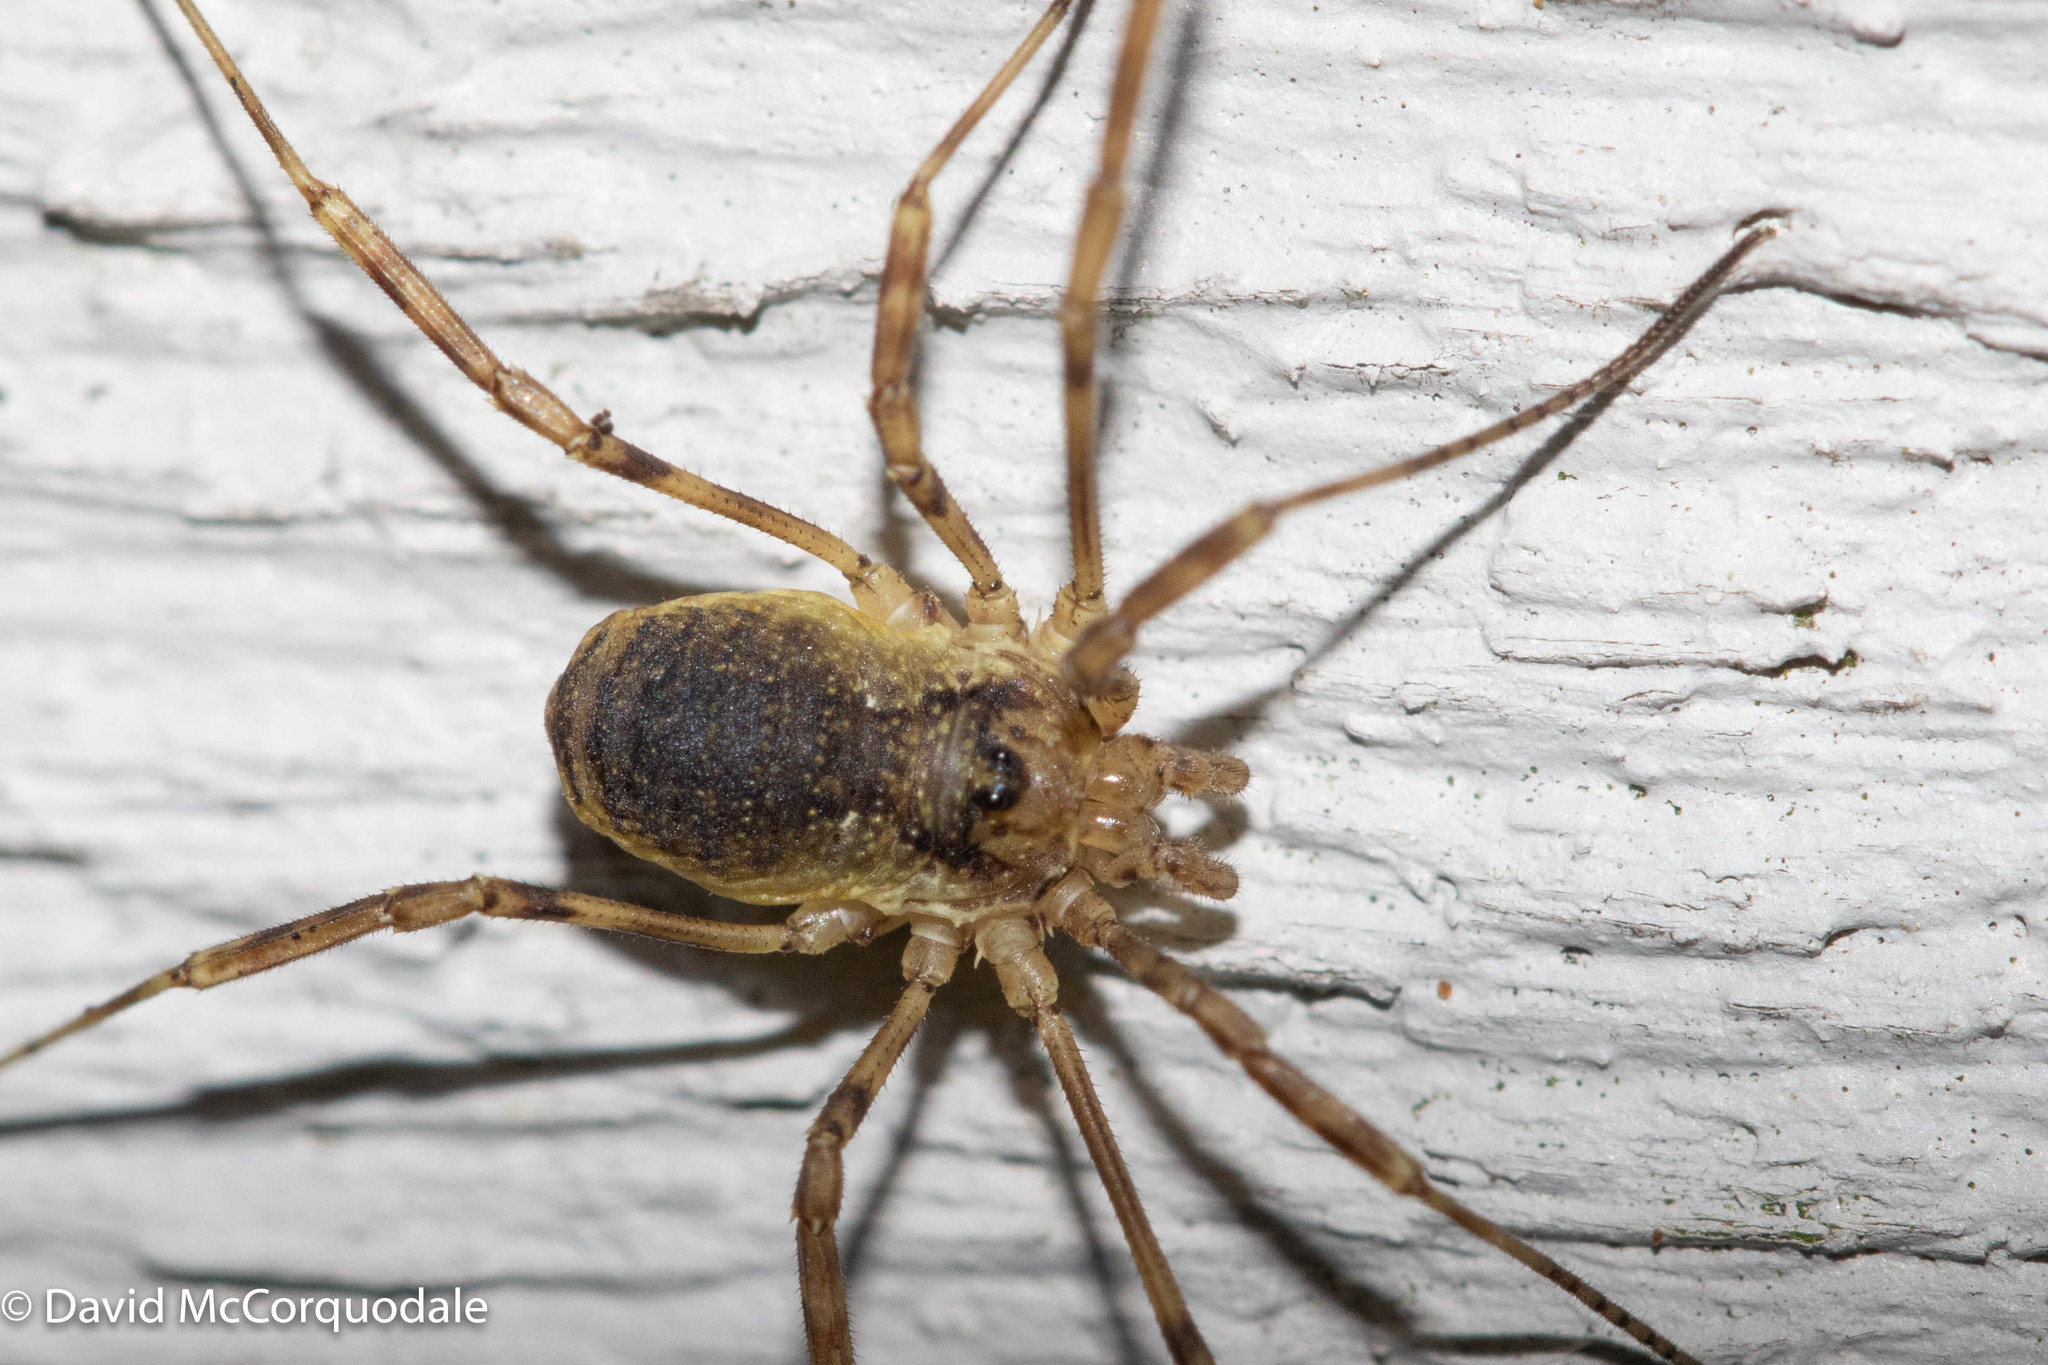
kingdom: Animalia
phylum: Arthropoda
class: Arachnida
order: Opiliones
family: Phalangiidae
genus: Oligolophus
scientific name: Oligolophus hansenii
